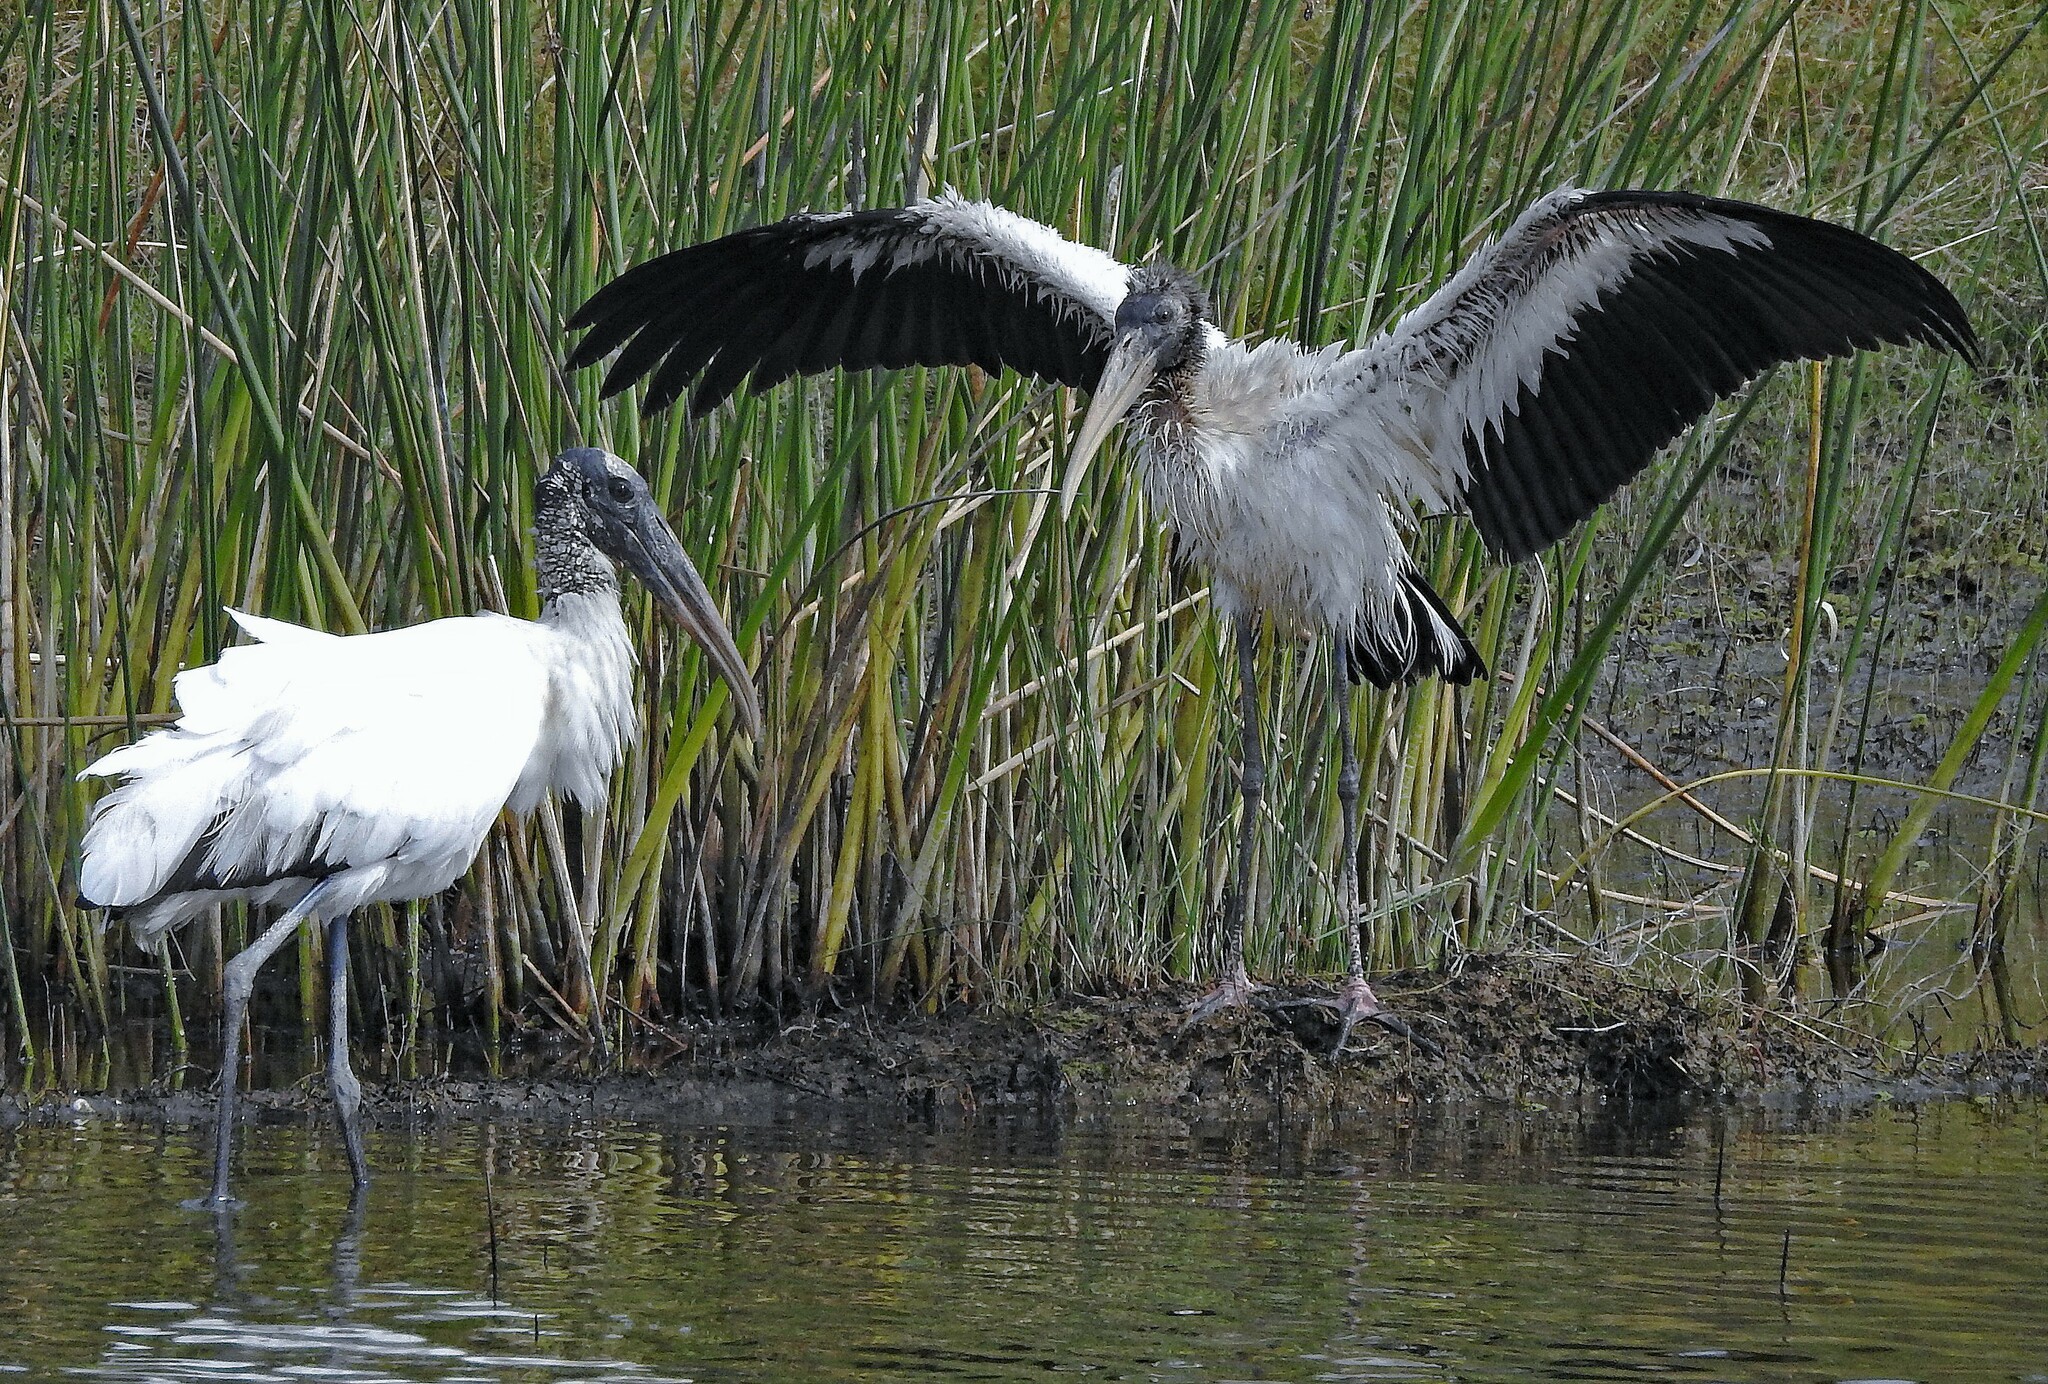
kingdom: Animalia
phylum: Chordata
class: Aves
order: Ciconiiformes
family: Ciconiidae
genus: Mycteria
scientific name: Mycteria americana
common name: Wood stork
